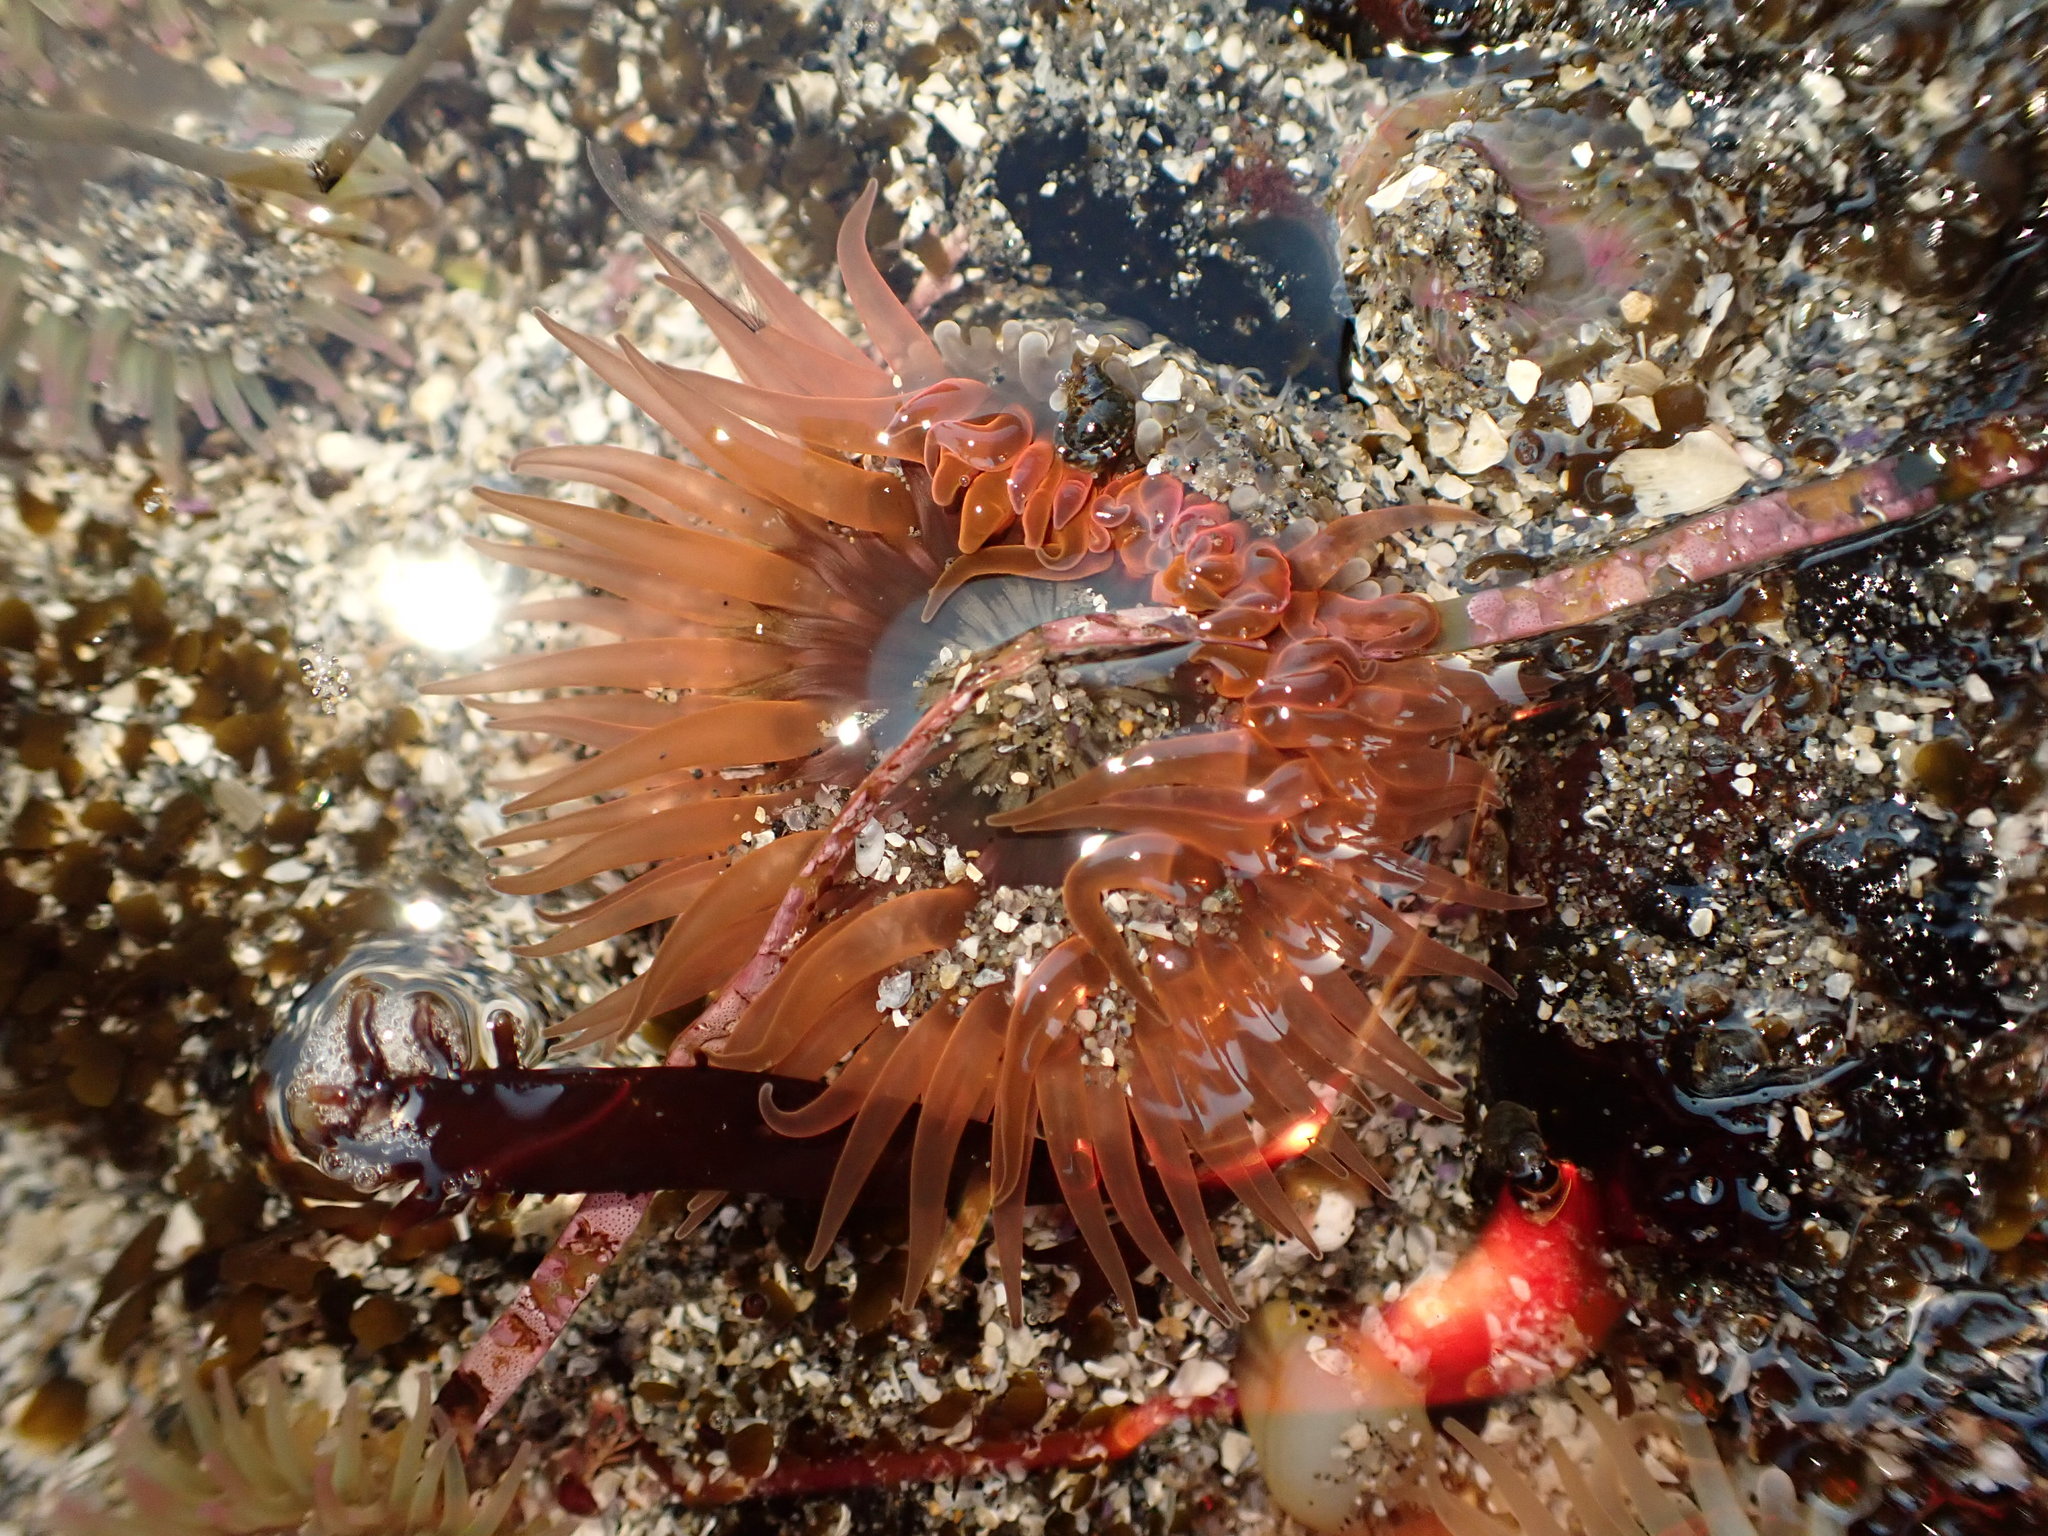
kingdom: Animalia
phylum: Cnidaria
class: Anthozoa
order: Actiniaria
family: Actiniidae
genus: Anthopleura
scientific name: Anthopleura artemisia
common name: Buried sea anemone
